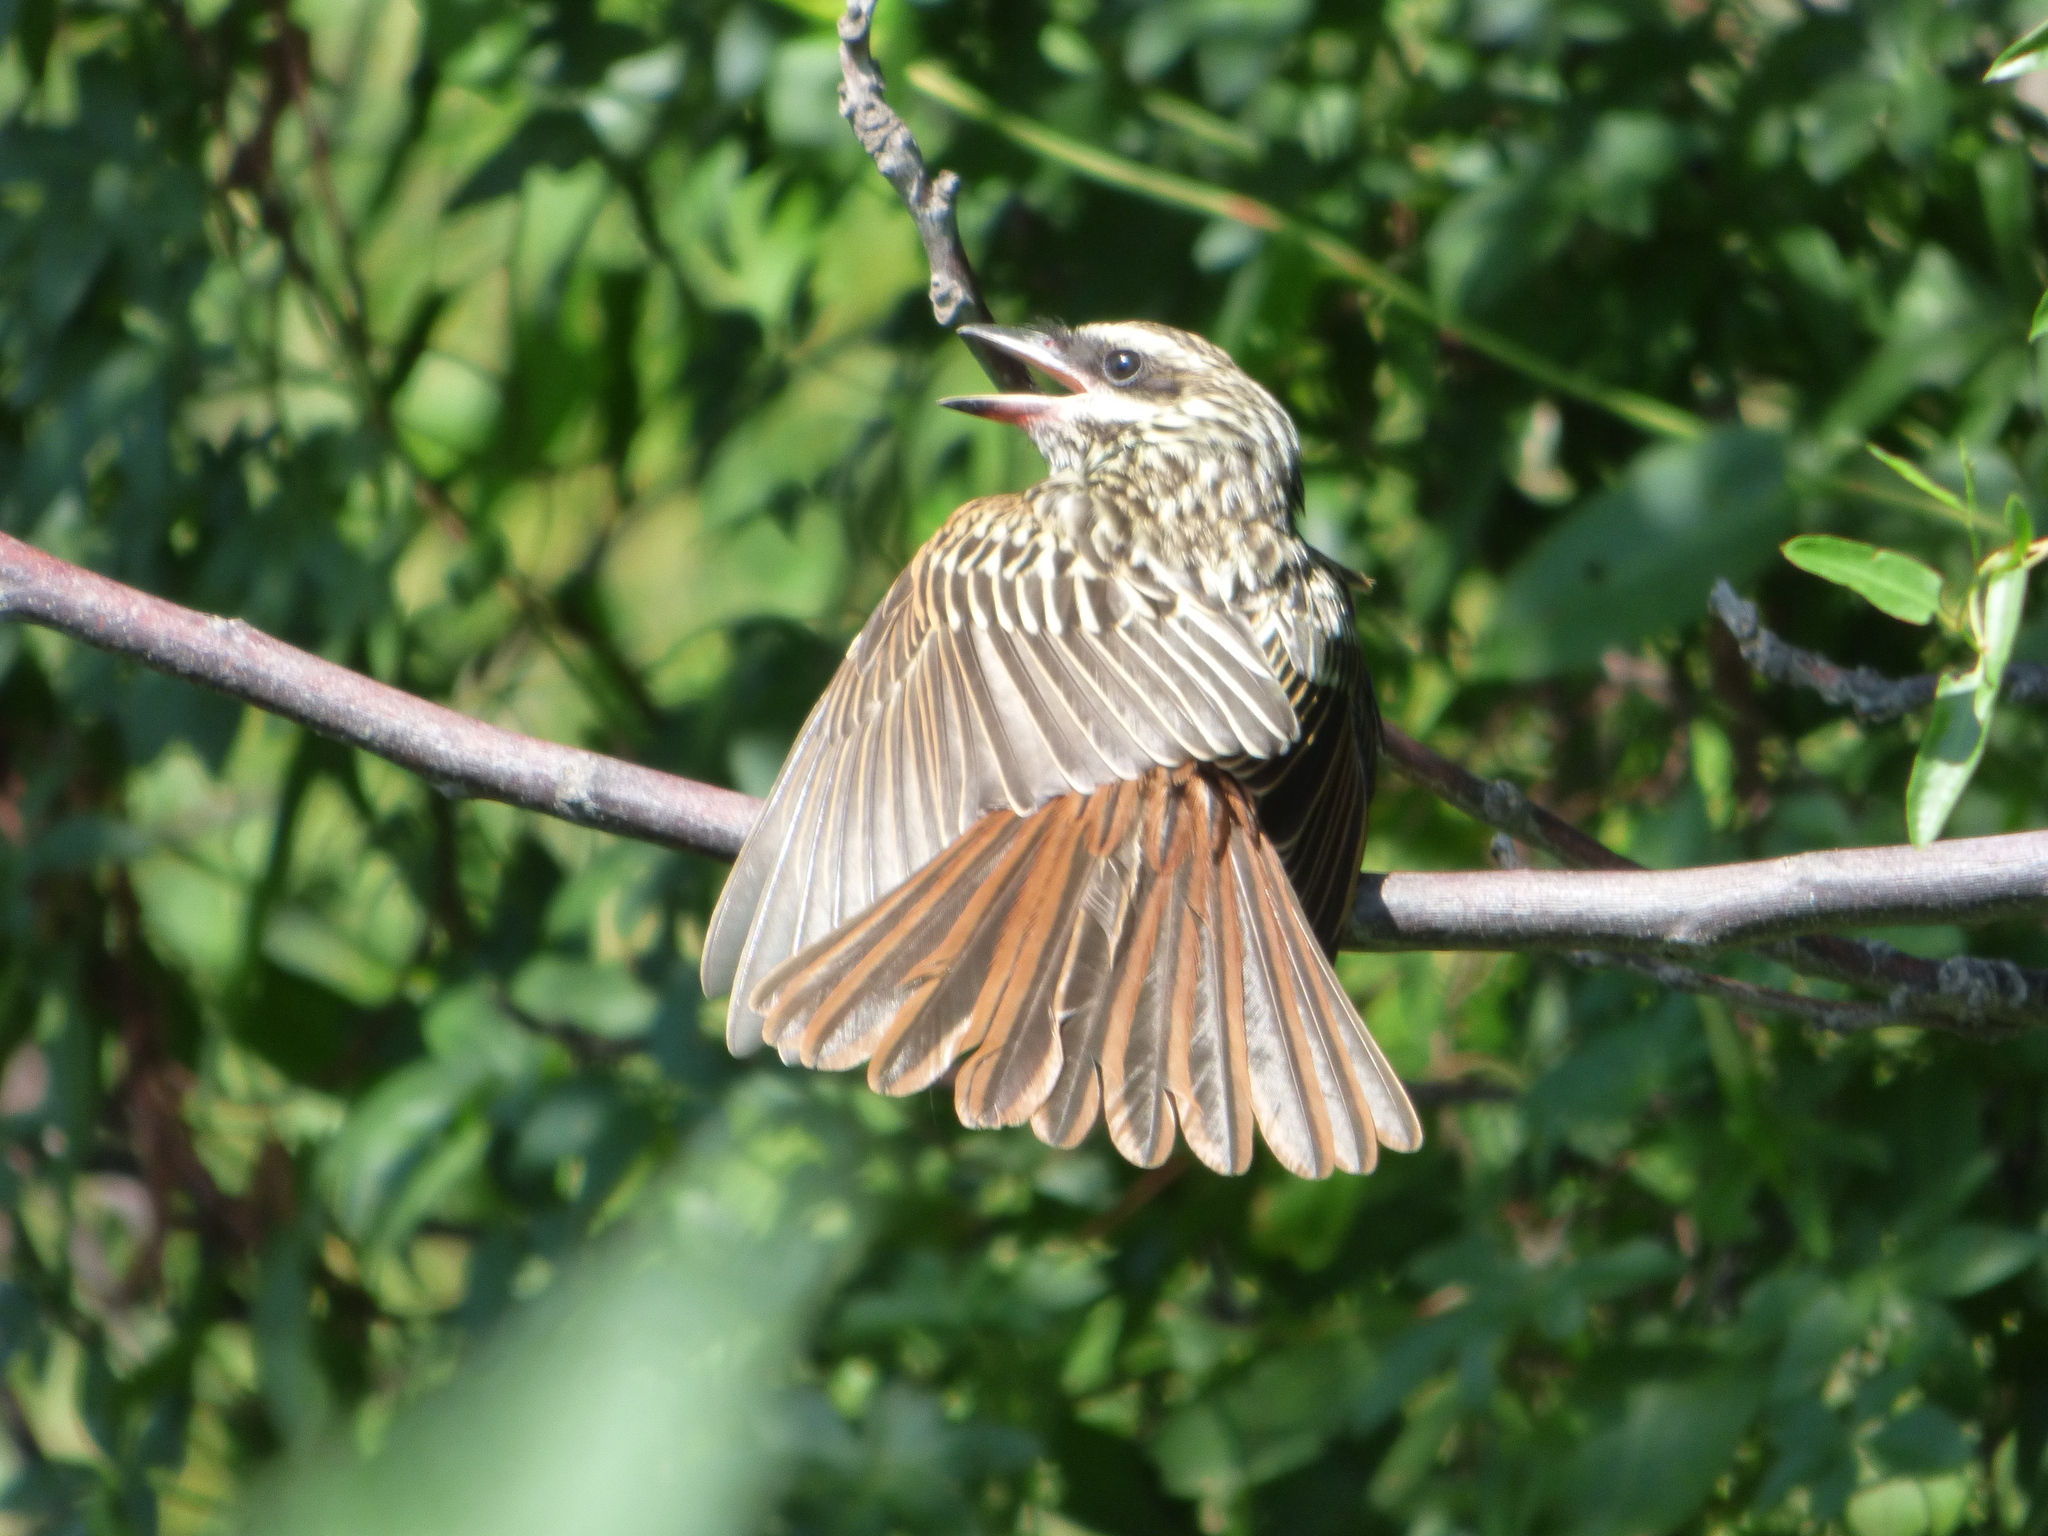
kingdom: Animalia
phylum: Chordata
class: Aves
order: Passeriformes
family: Tyrannidae
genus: Myiodynastes
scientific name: Myiodynastes maculatus
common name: Streaked flycatcher
